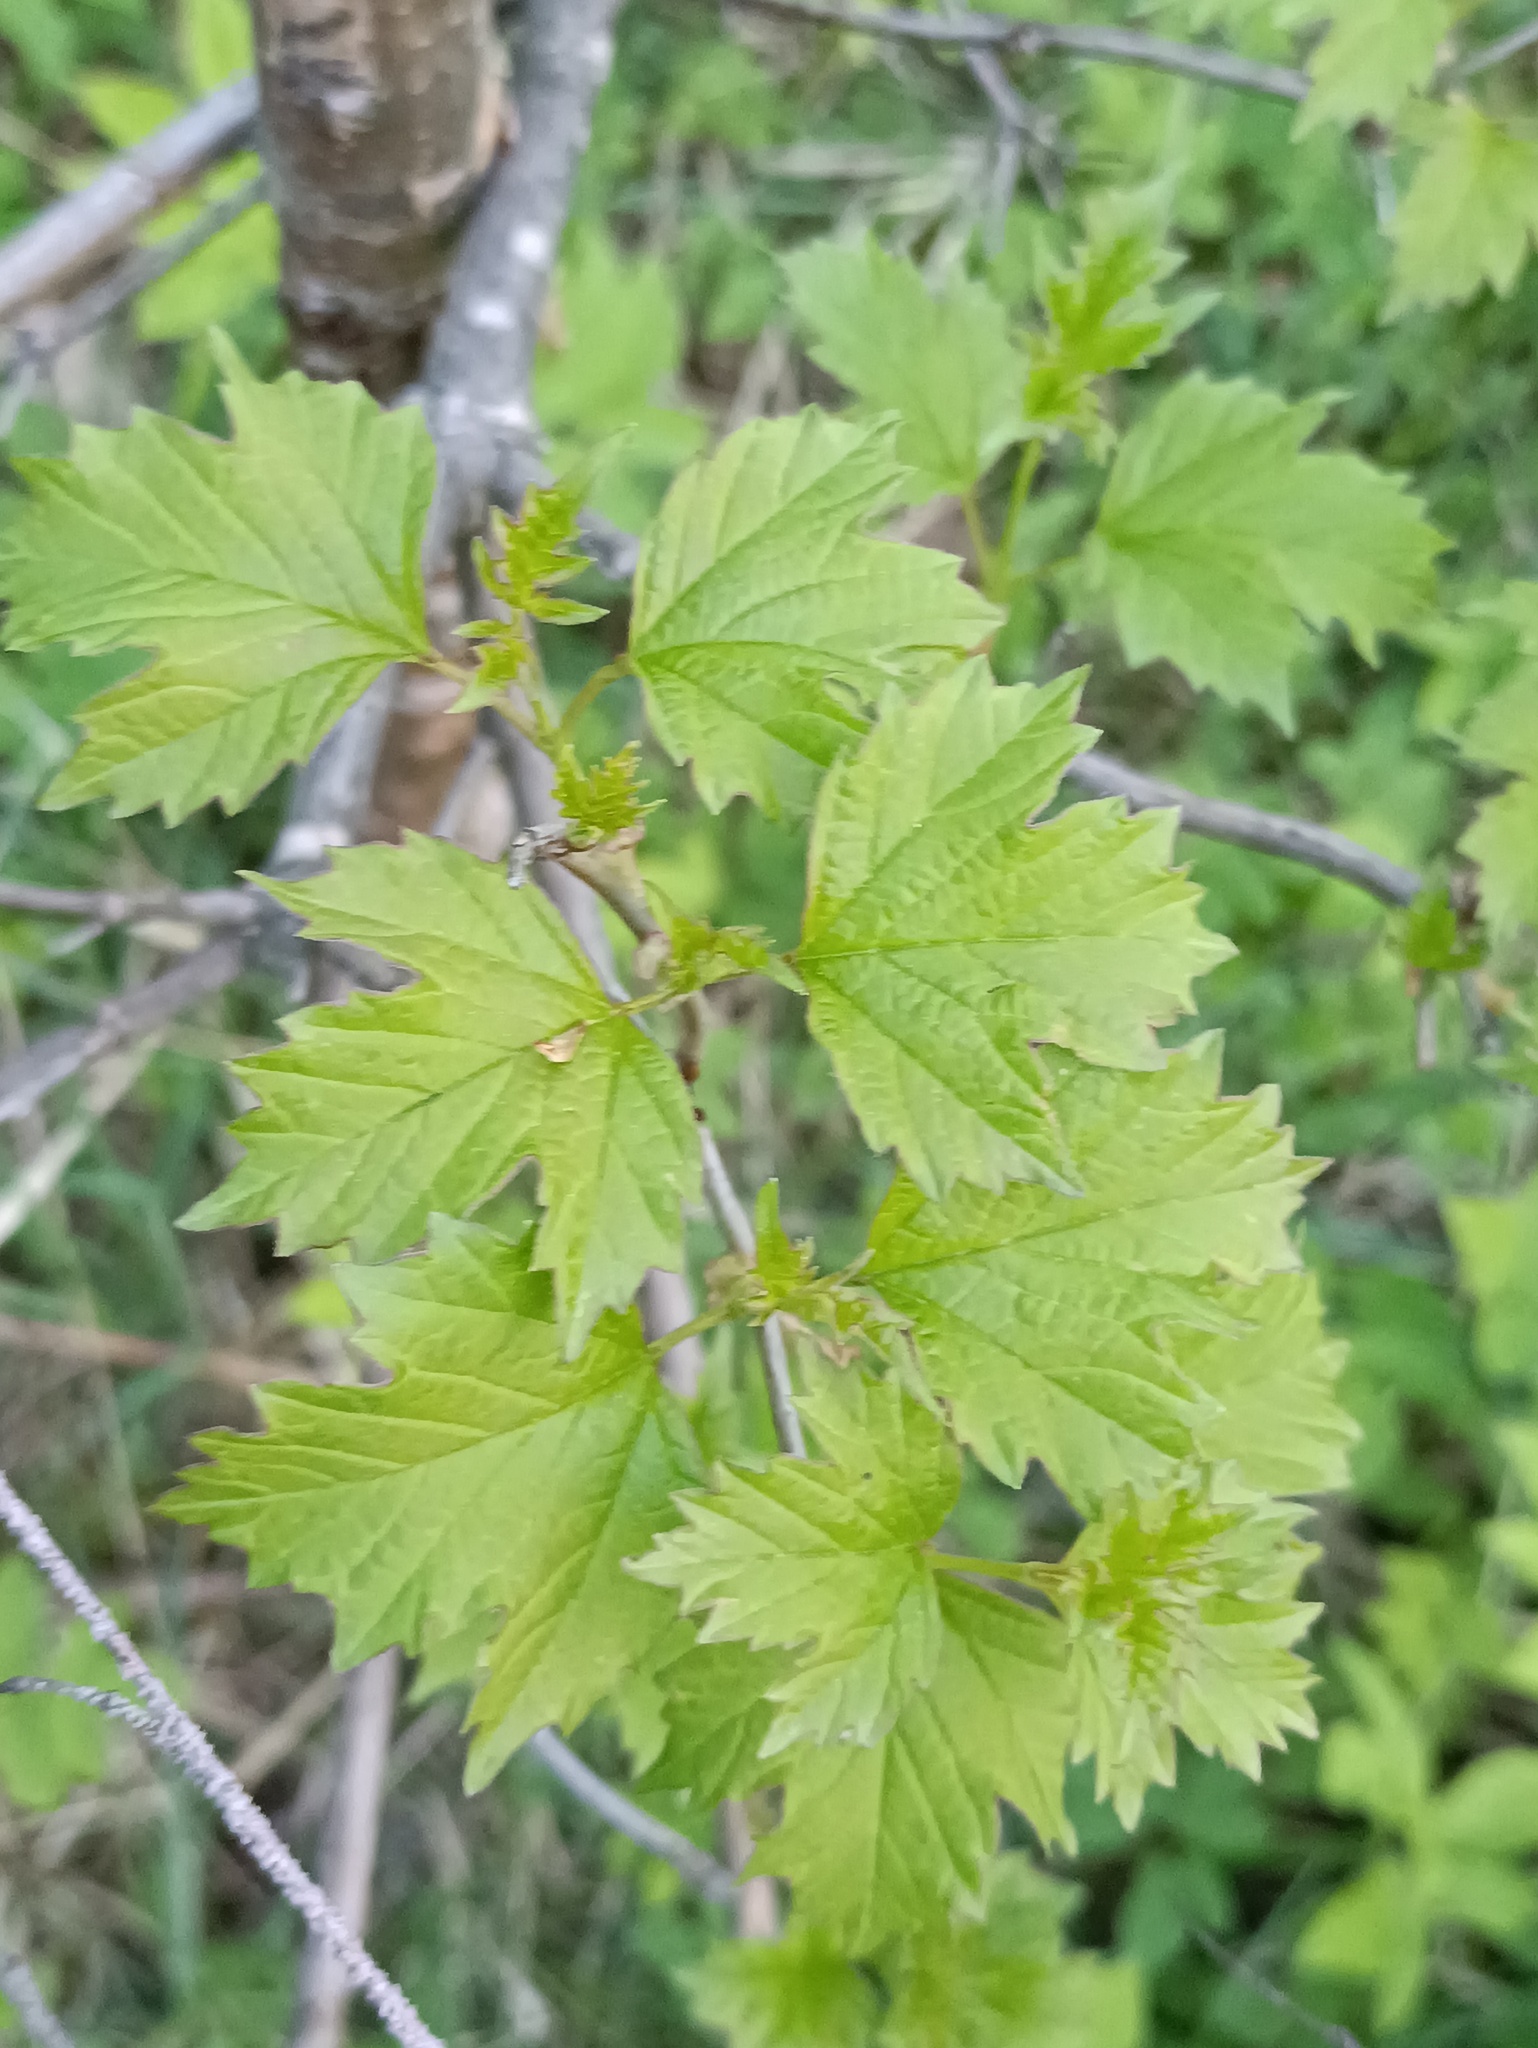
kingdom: Plantae
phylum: Tracheophyta
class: Magnoliopsida
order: Dipsacales
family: Viburnaceae
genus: Viburnum
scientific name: Viburnum opulus
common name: Guelder-rose
